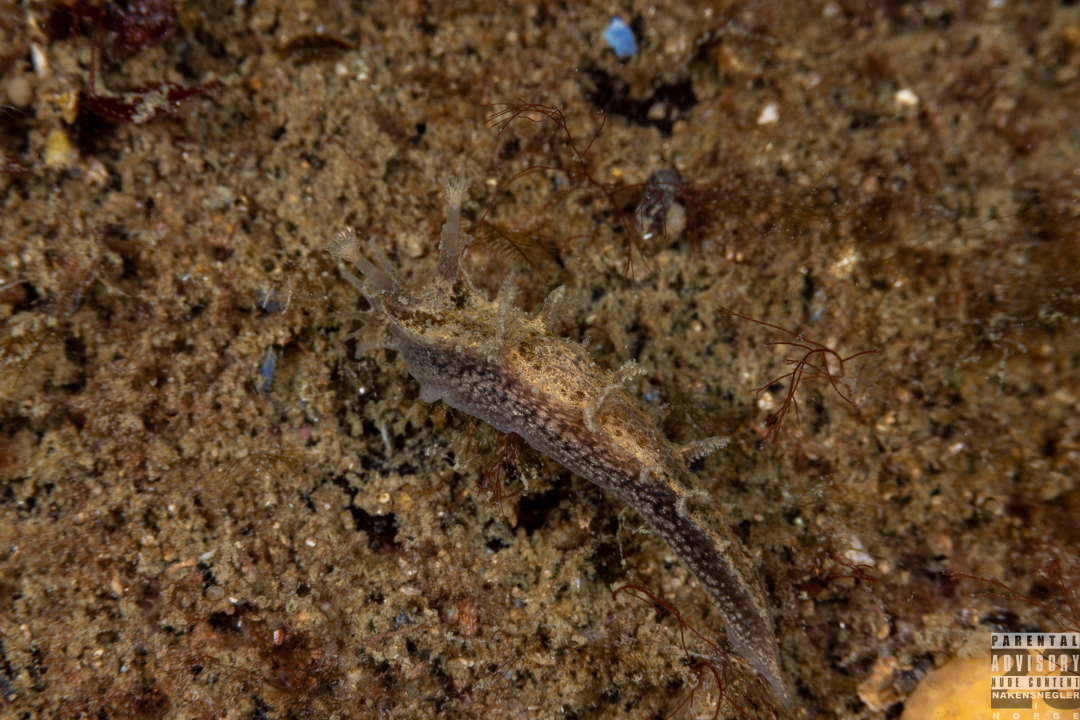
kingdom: Animalia
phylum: Mollusca
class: Gastropoda
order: Nudibranchia
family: Tritoniidae
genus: Duvaucelia
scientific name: Duvaucelia plebeia
